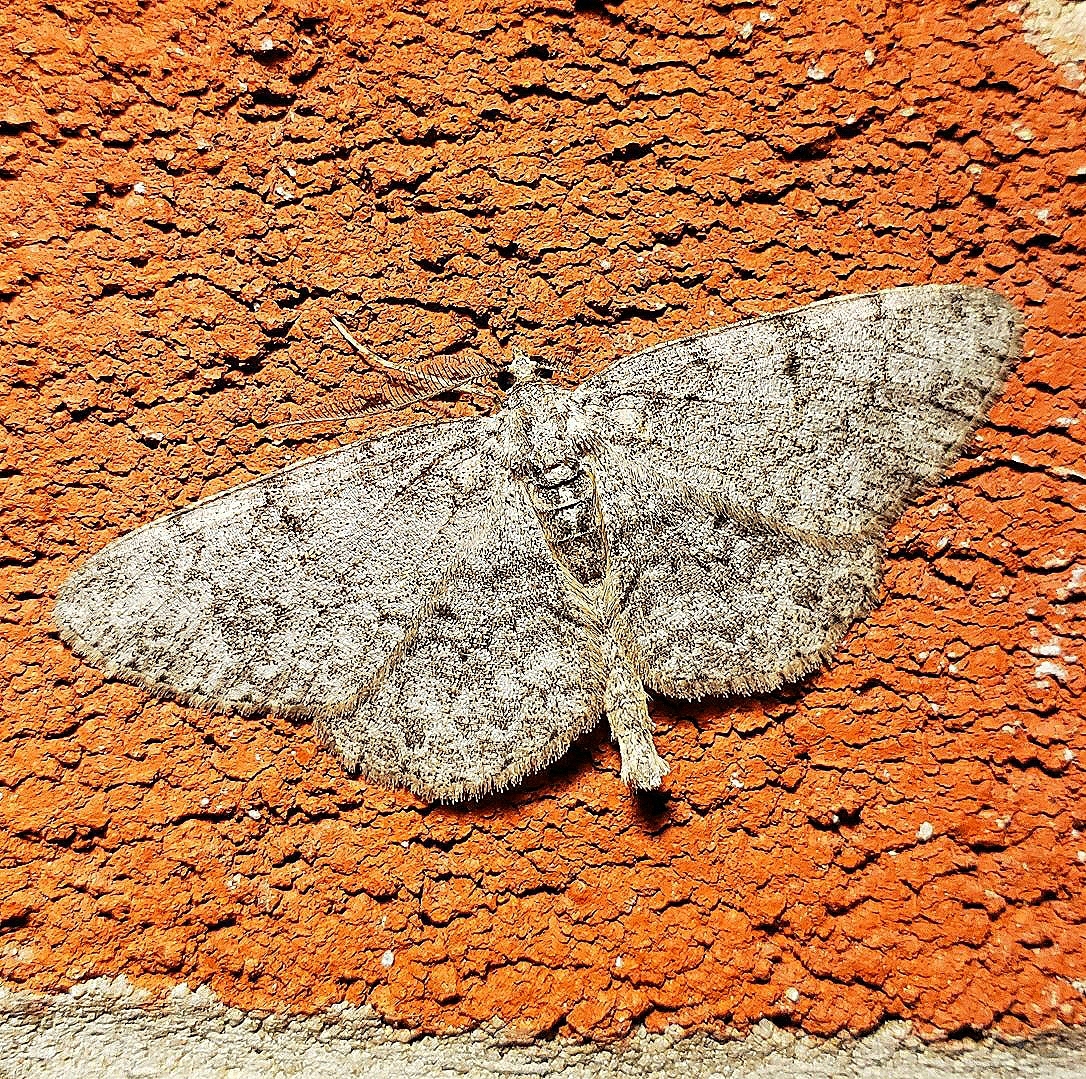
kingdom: Animalia
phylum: Arthropoda
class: Insecta
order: Lepidoptera
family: Geometridae
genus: Protoboarmia
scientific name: Protoboarmia porcelaria
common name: Porcelain gray
